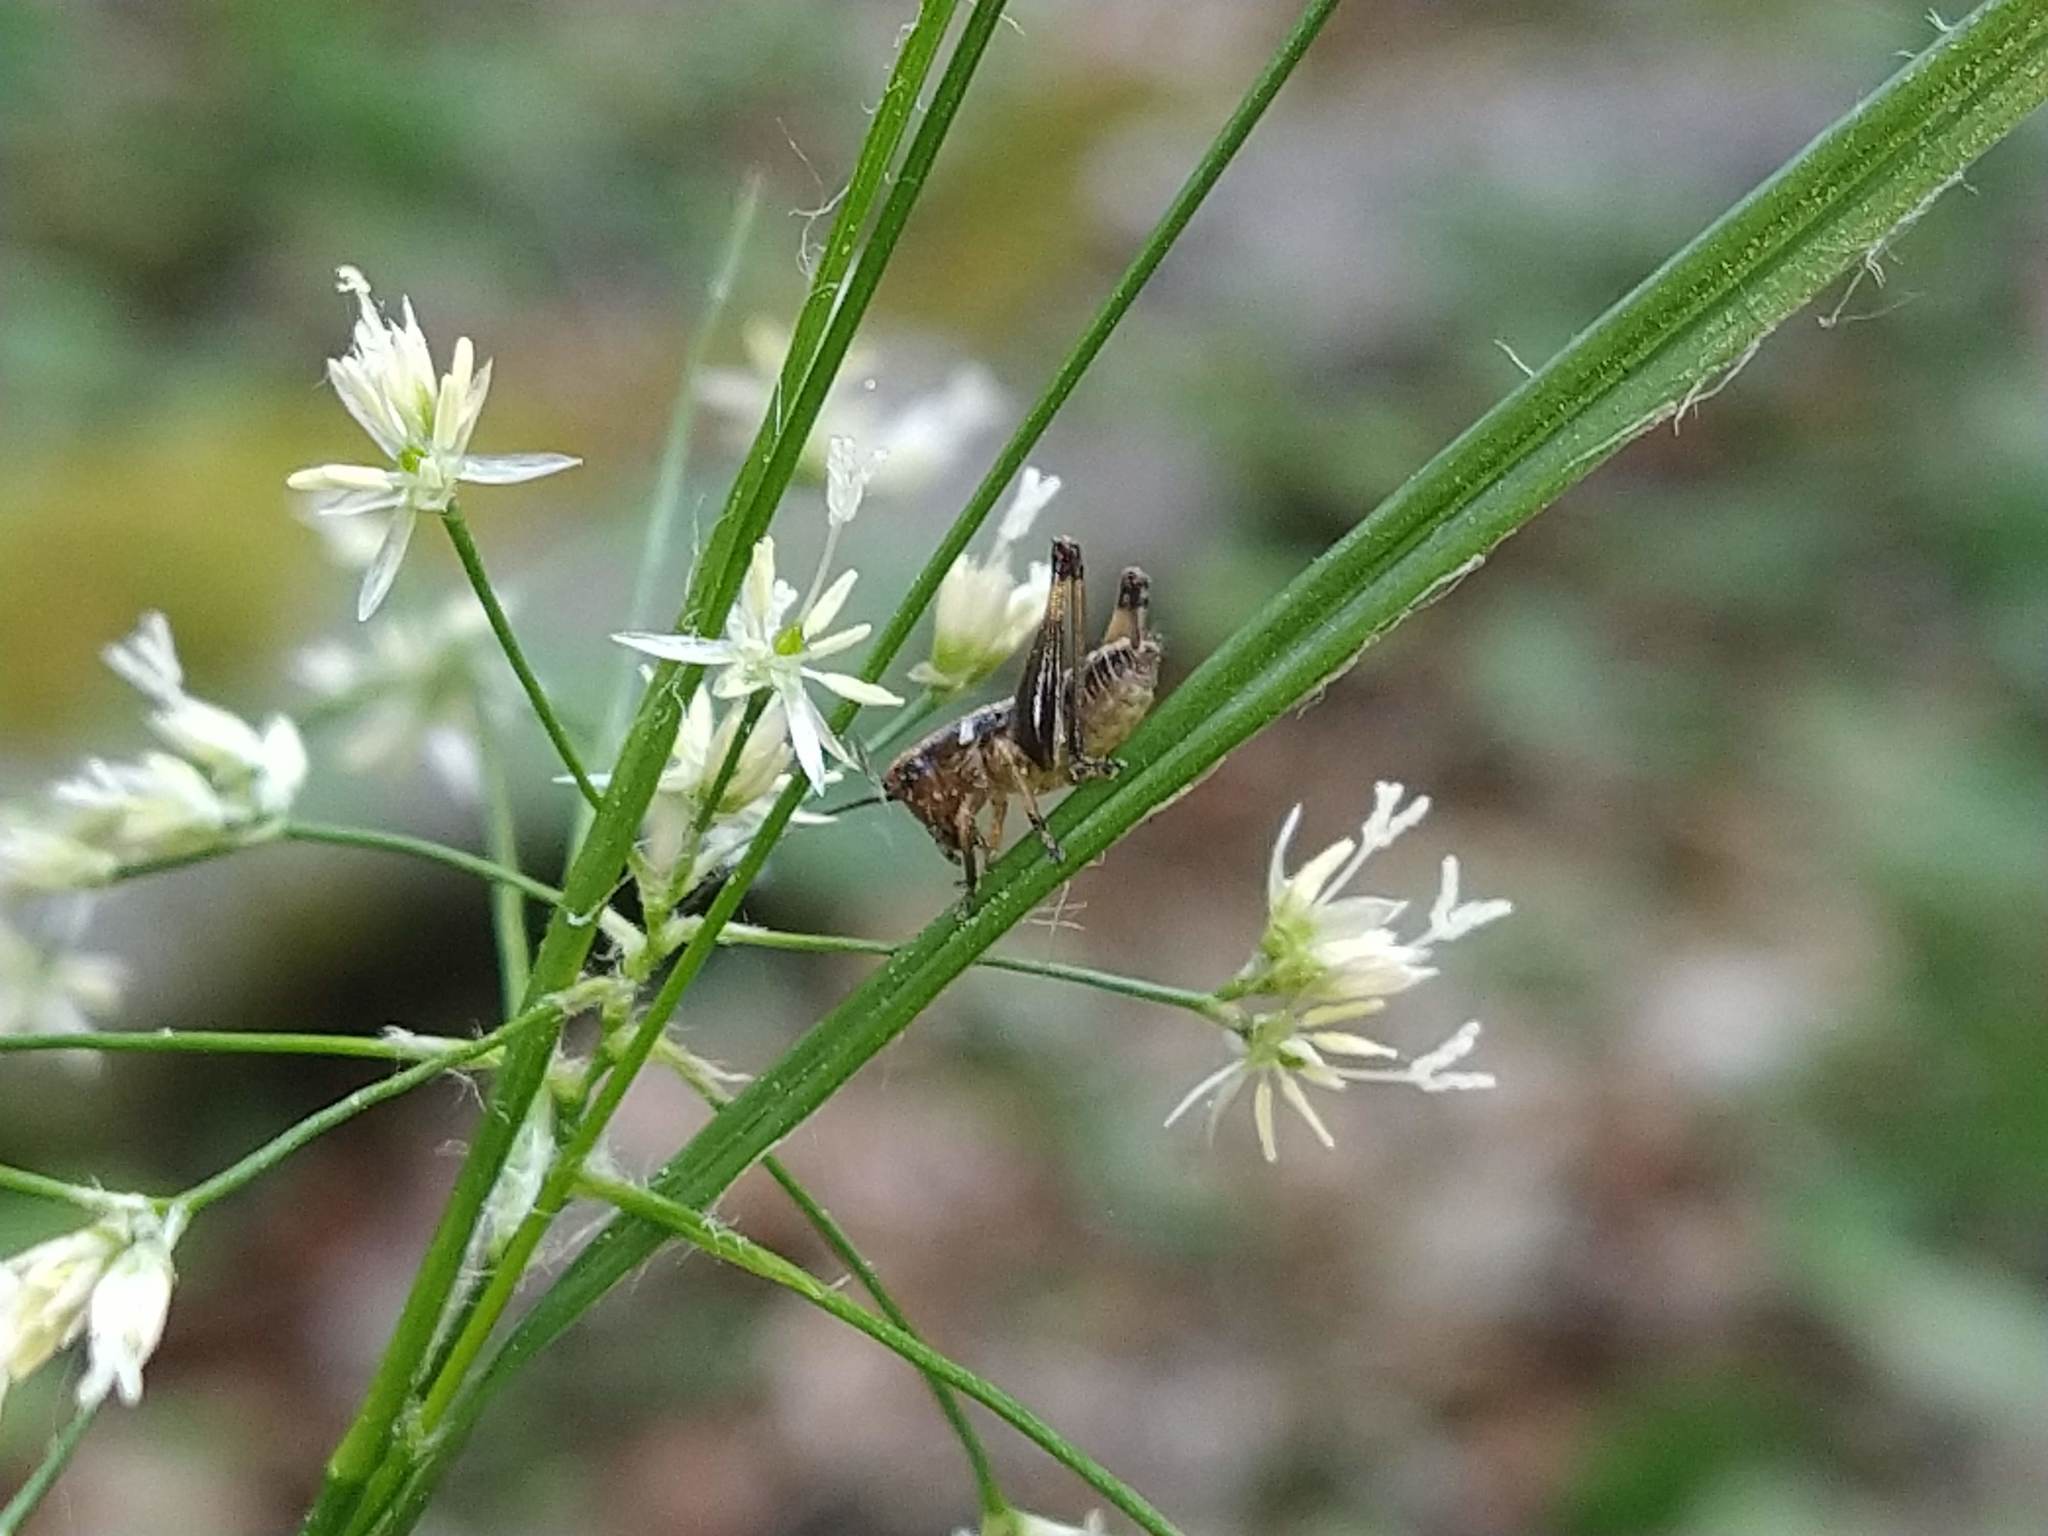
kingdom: Animalia
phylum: Arthropoda
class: Insecta
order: Orthoptera
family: Tettigoniidae
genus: Pholidoptera
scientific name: Pholidoptera griseoaptera
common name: Dark bush-cricket
